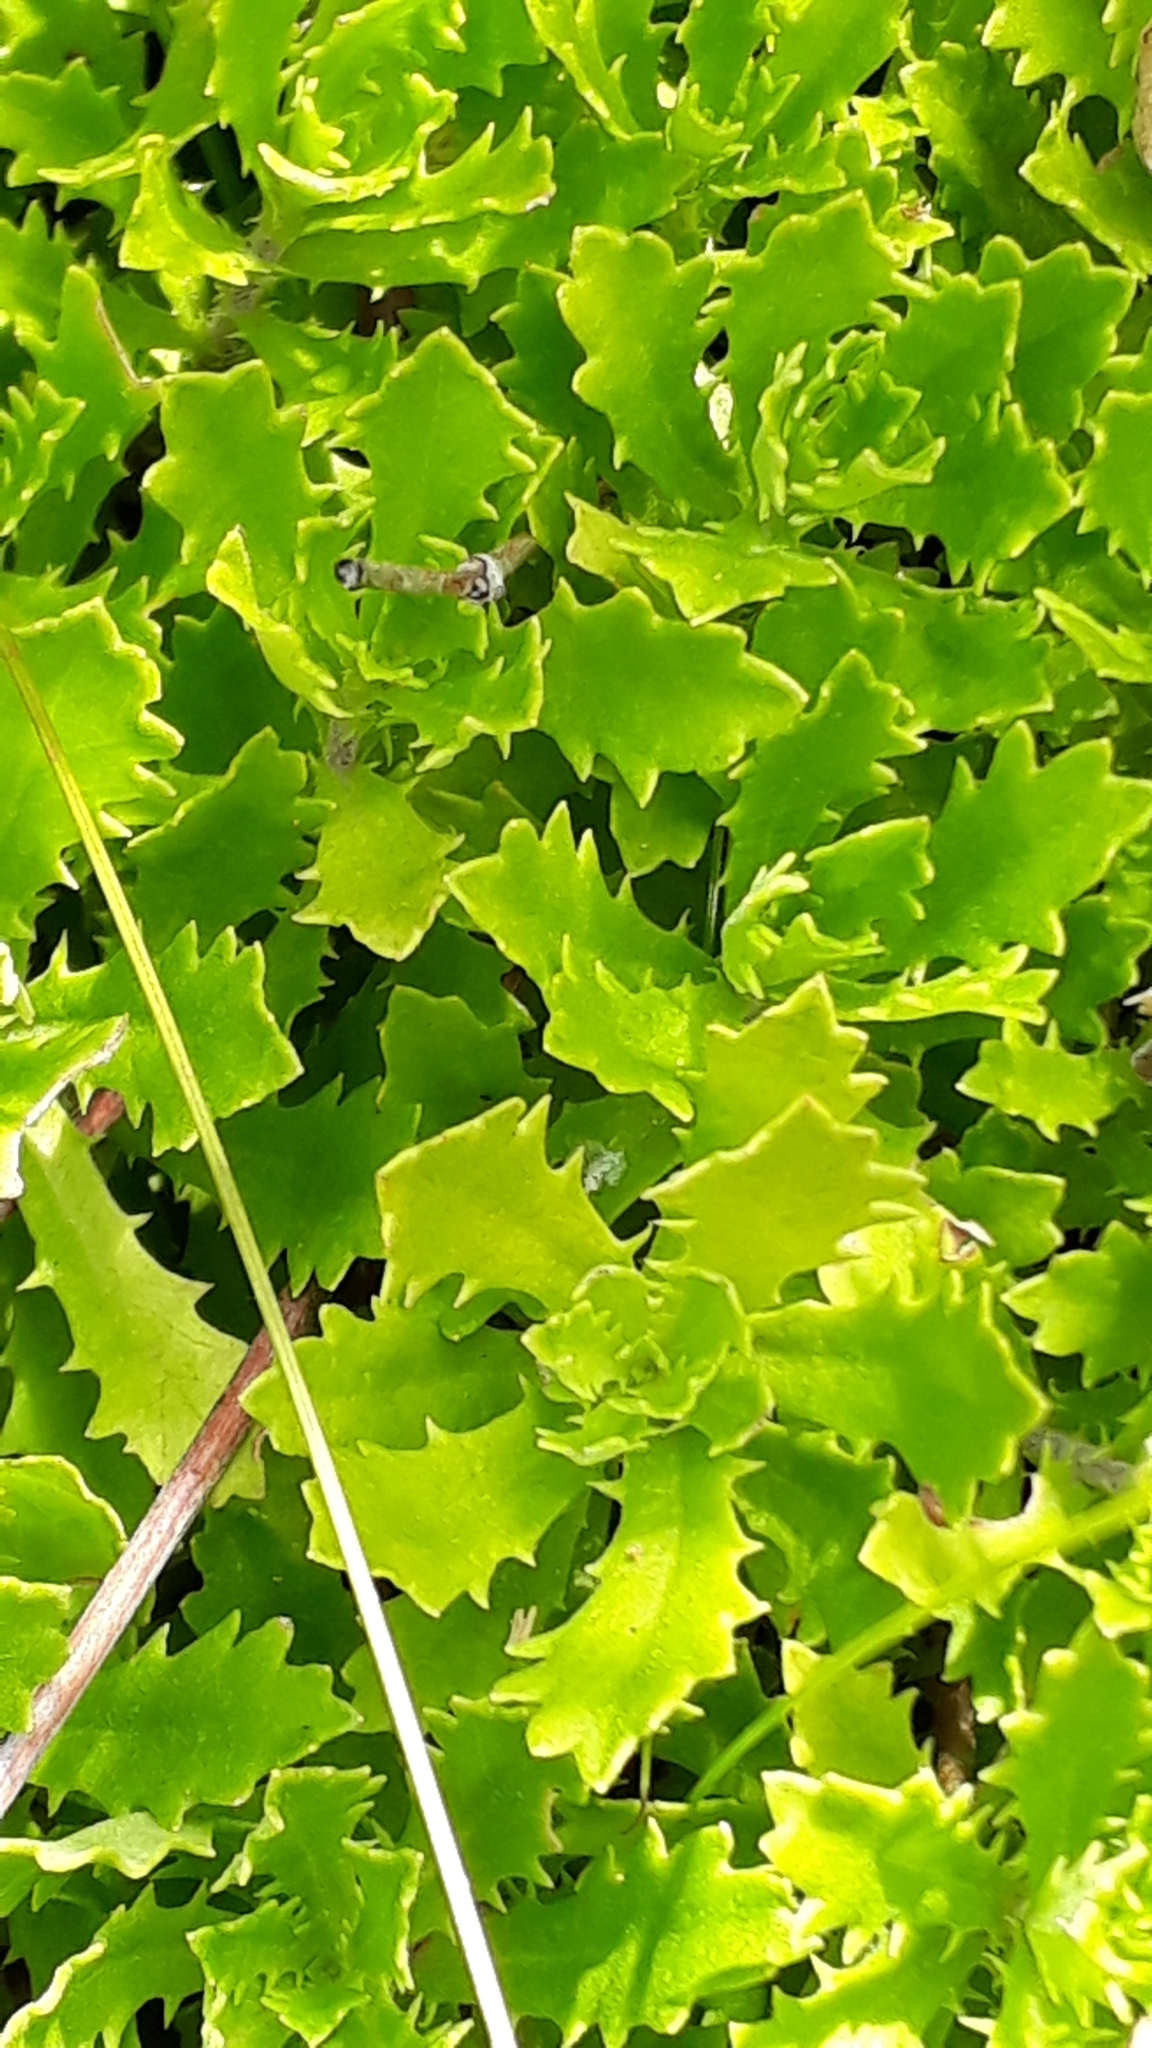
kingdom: Plantae
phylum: Tracheophyta
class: Magnoliopsida
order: Asterales
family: Asteraceae
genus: Osmitopsis
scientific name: Osmitopsis dentata
